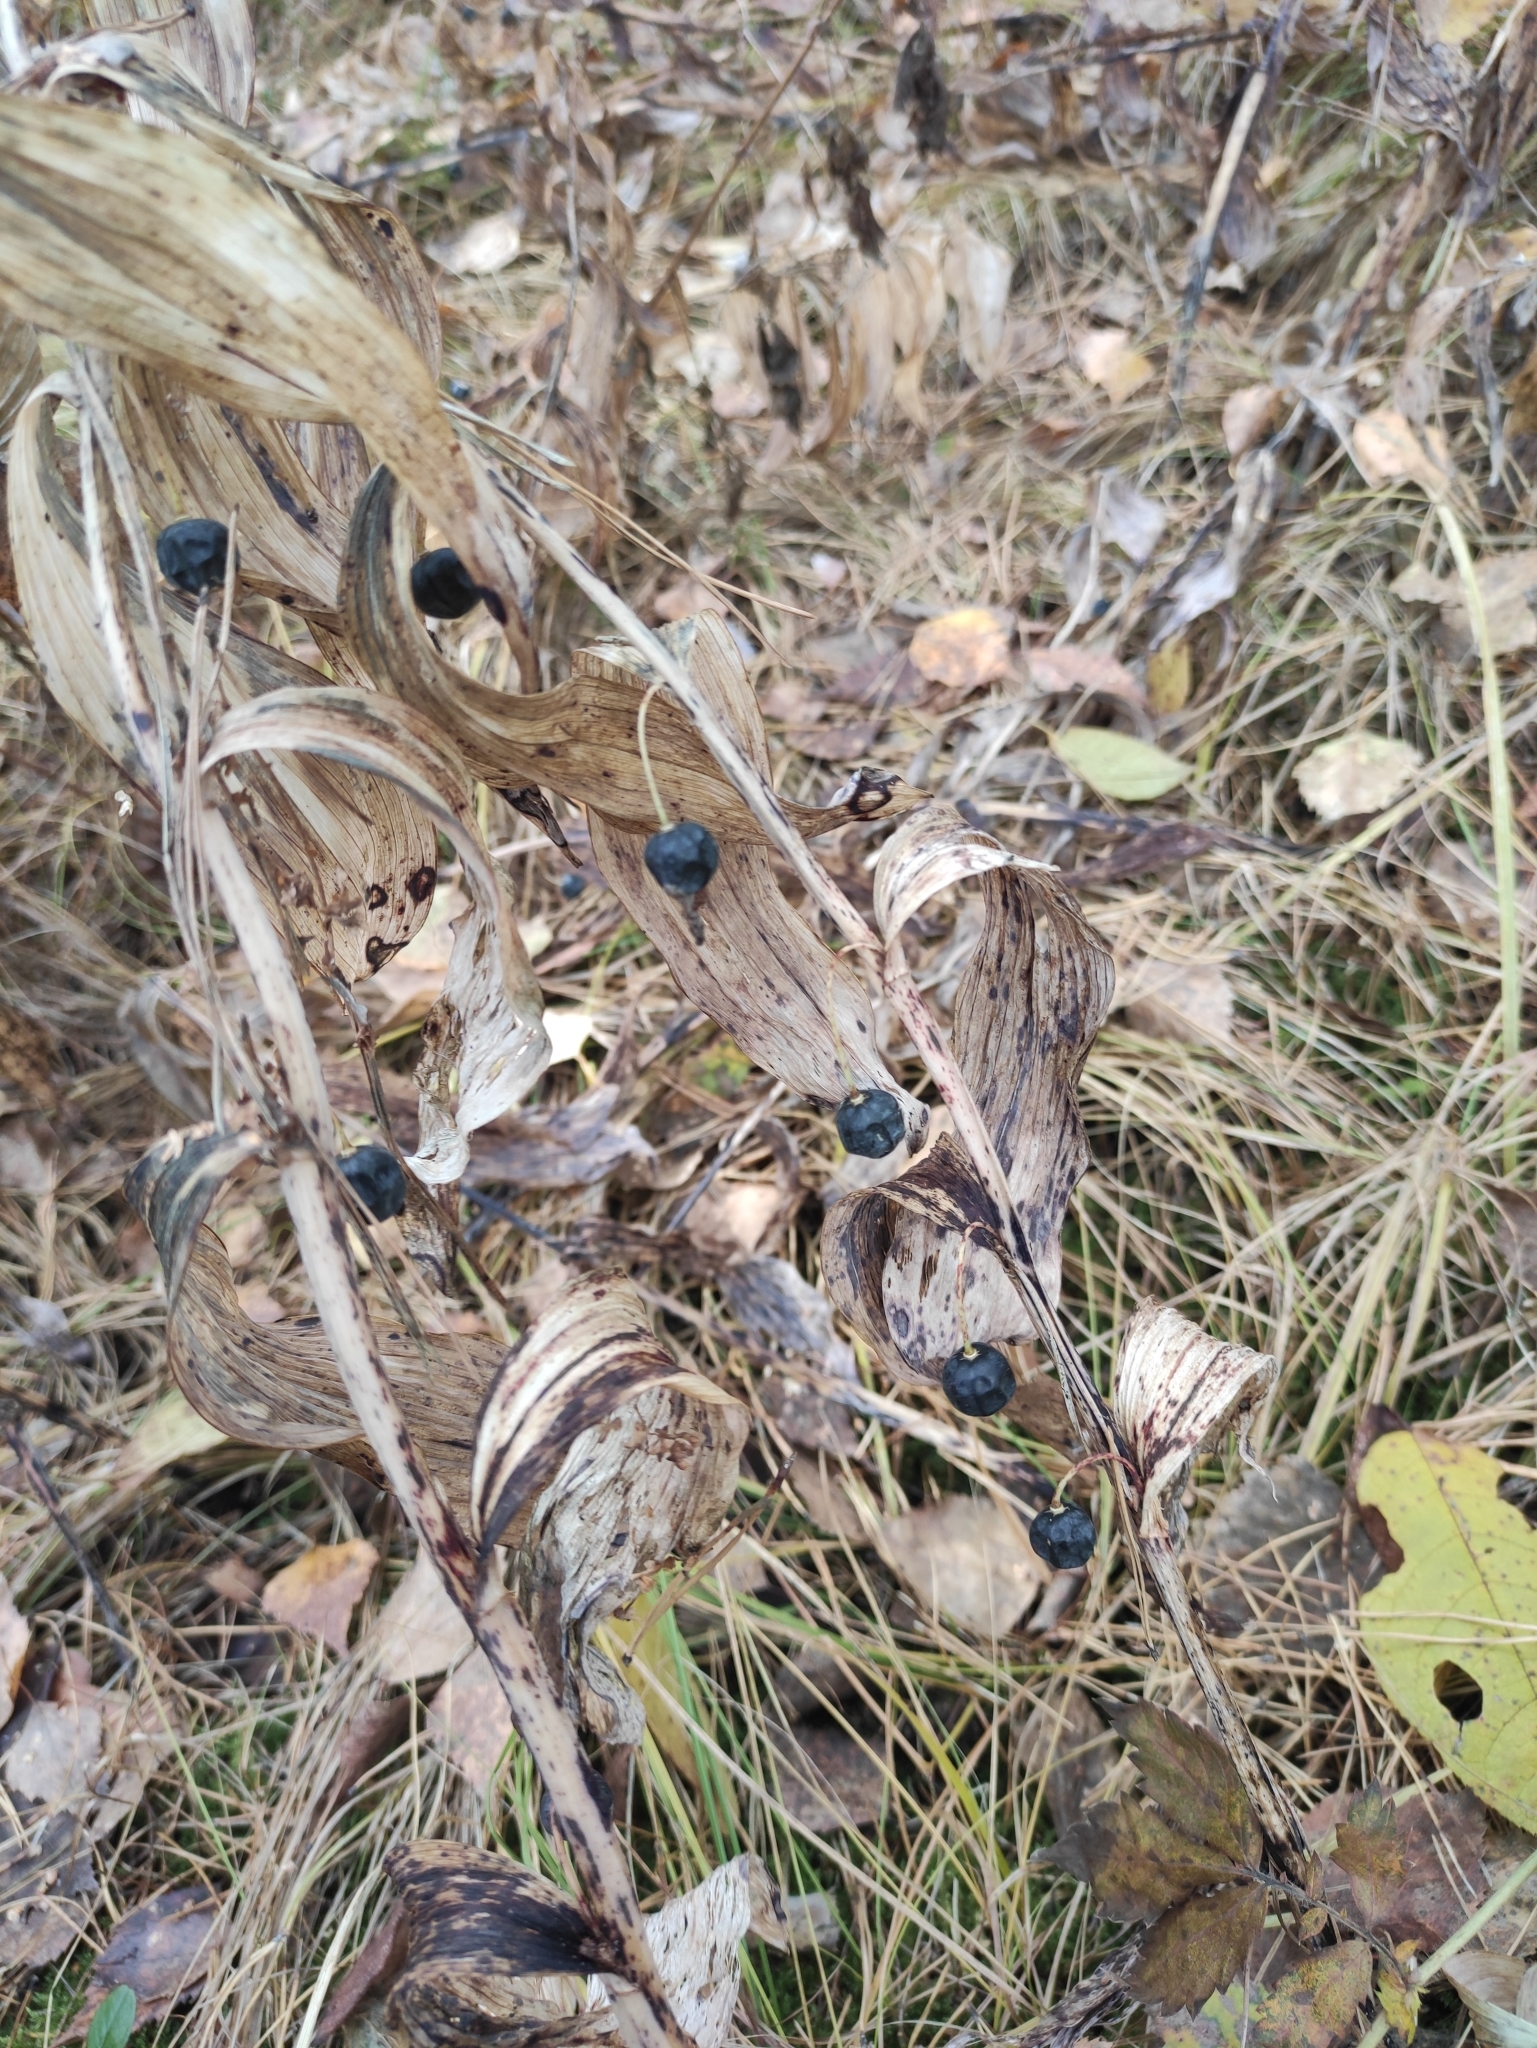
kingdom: Plantae
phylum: Tracheophyta
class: Liliopsida
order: Asparagales
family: Asparagaceae
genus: Polygonatum
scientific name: Polygonatum odoratum
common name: Angular solomon's-seal
